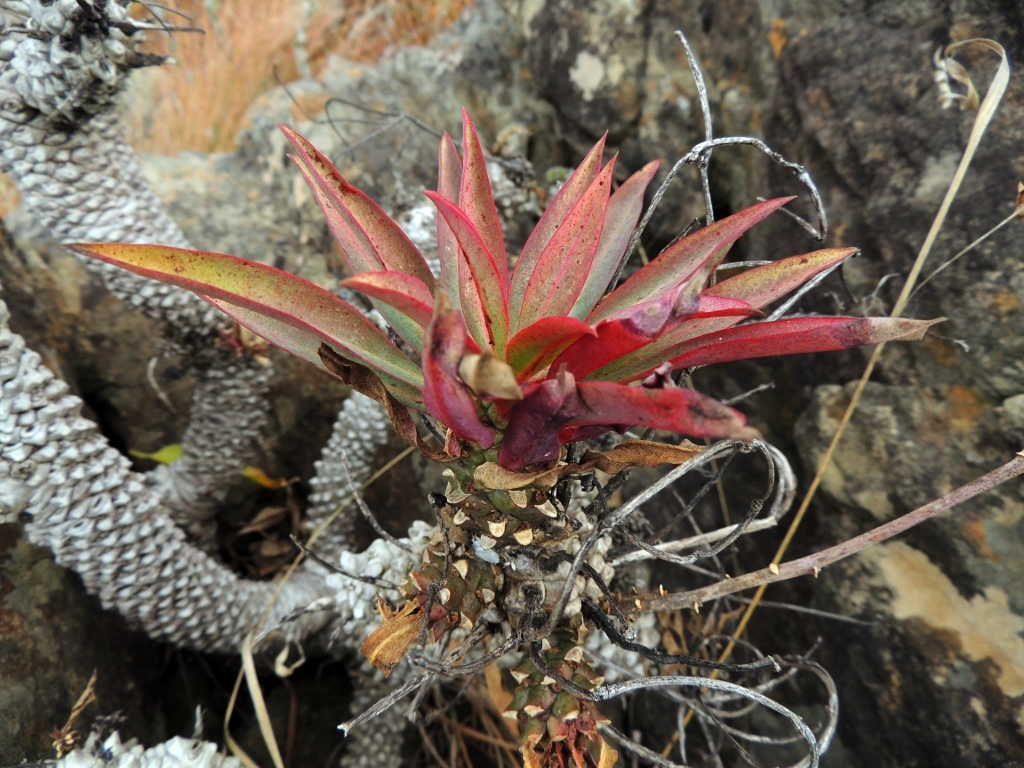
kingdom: Plantae
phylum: Tracheophyta
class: Magnoliopsida
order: Malpighiales
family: Euphorbiaceae
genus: Euphorbia
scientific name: Euphorbia wildii
